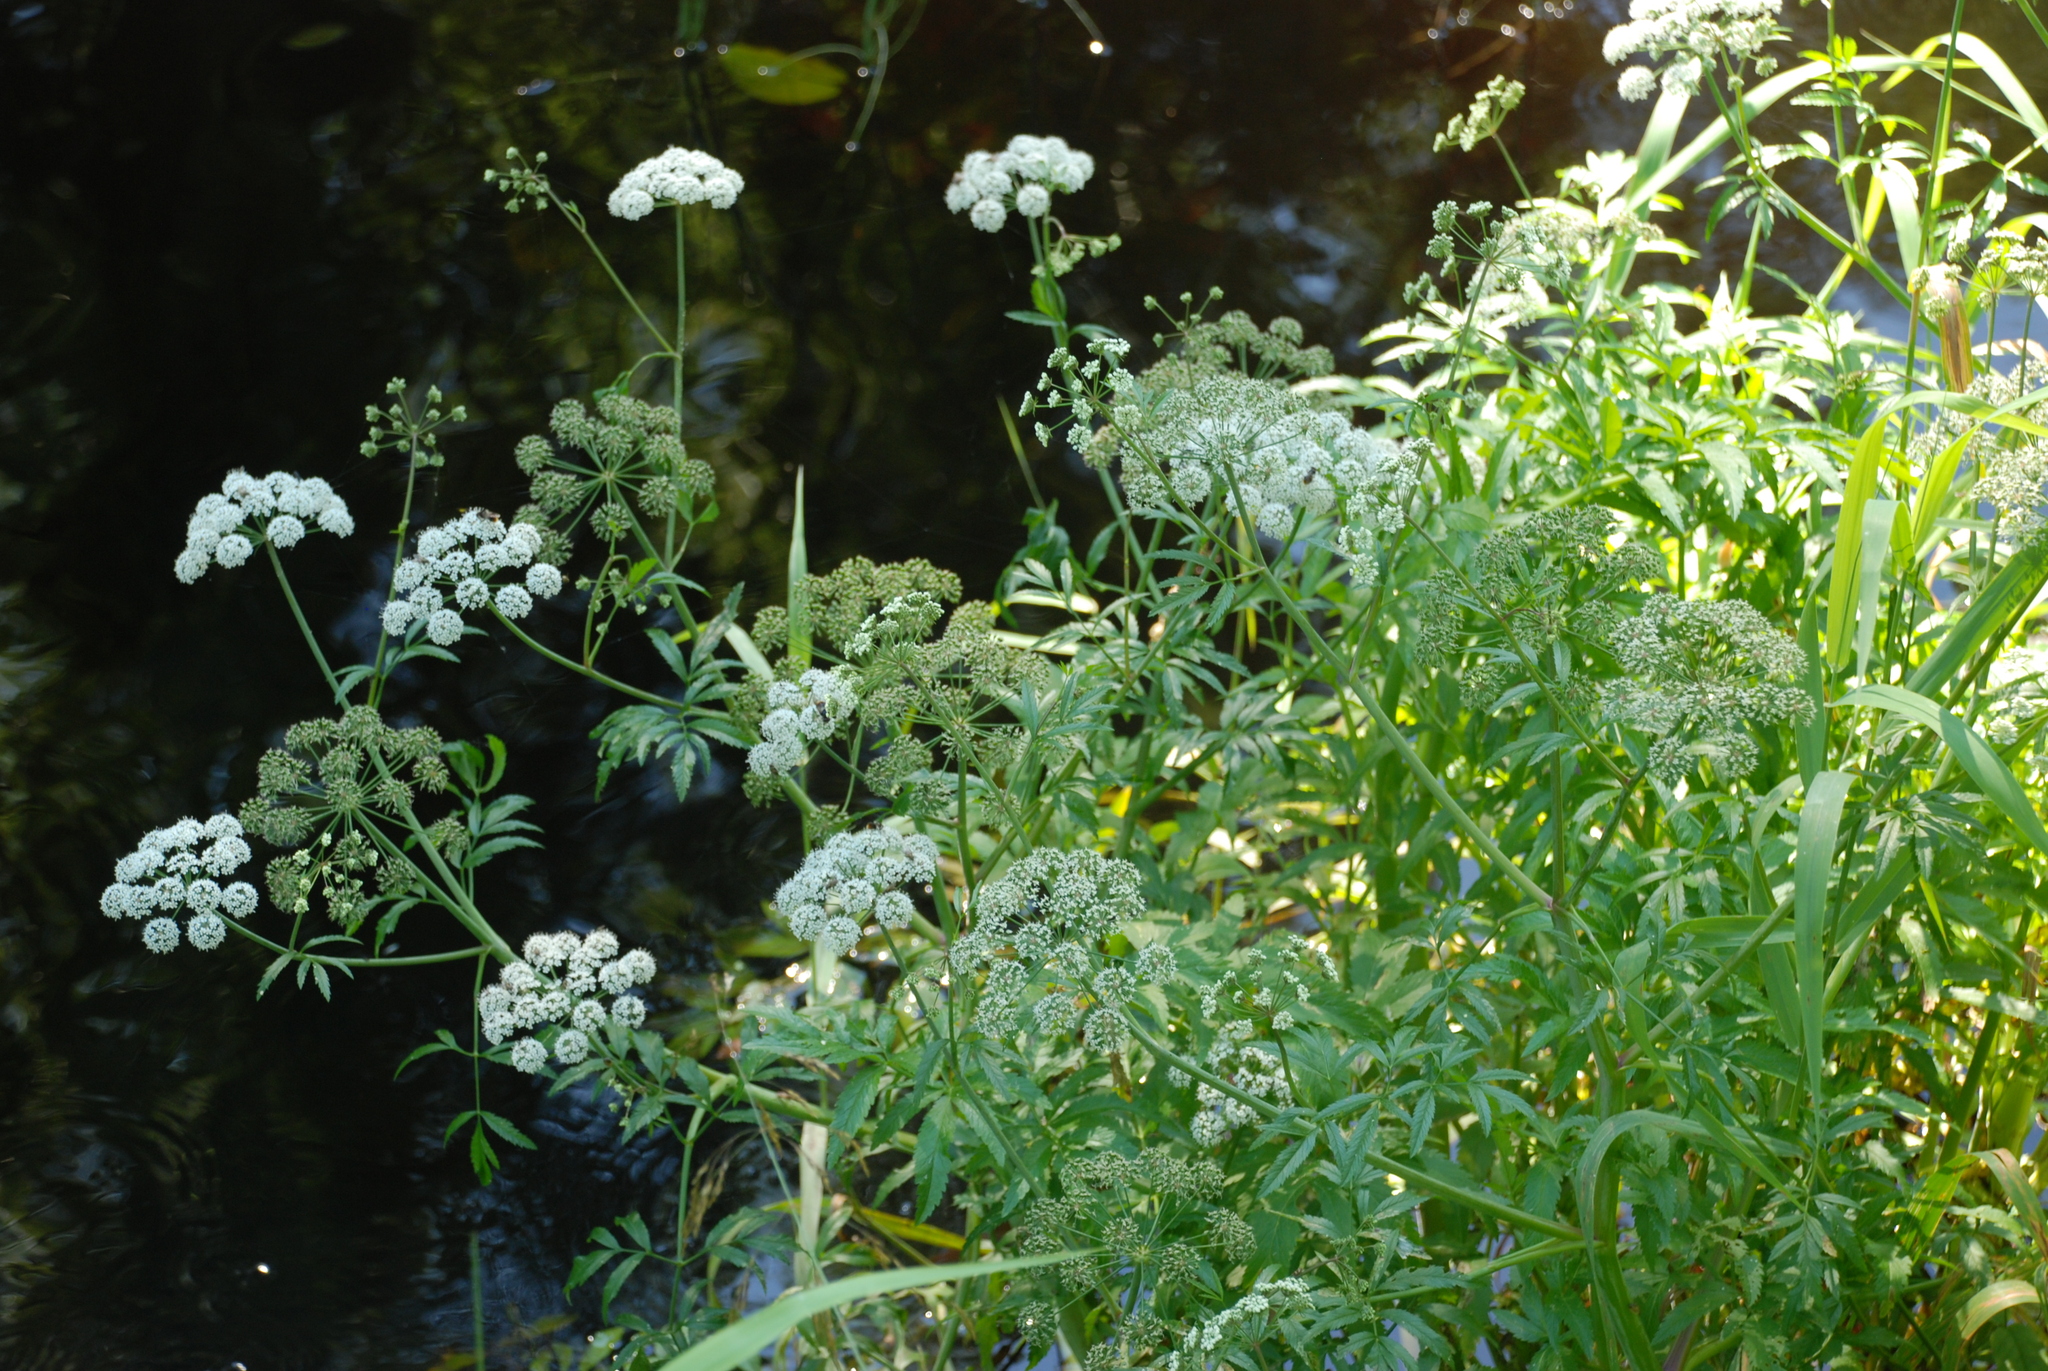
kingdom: Plantae
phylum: Tracheophyta
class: Magnoliopsida
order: Apiales
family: Apiaceae
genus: Cicuta
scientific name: Cicuta virosa
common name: Cowbane
